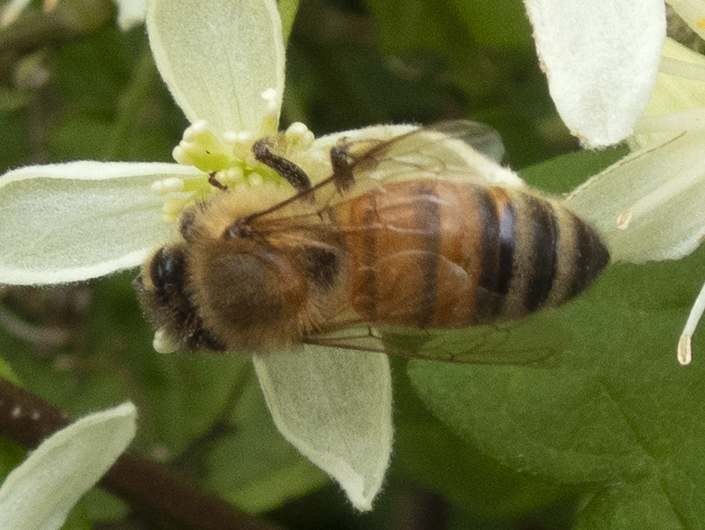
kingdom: Animalia
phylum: Arthropoda
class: Insecta
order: Hymenoptera
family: Apidae
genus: Apis
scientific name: Apis mellifera
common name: Honey bee
